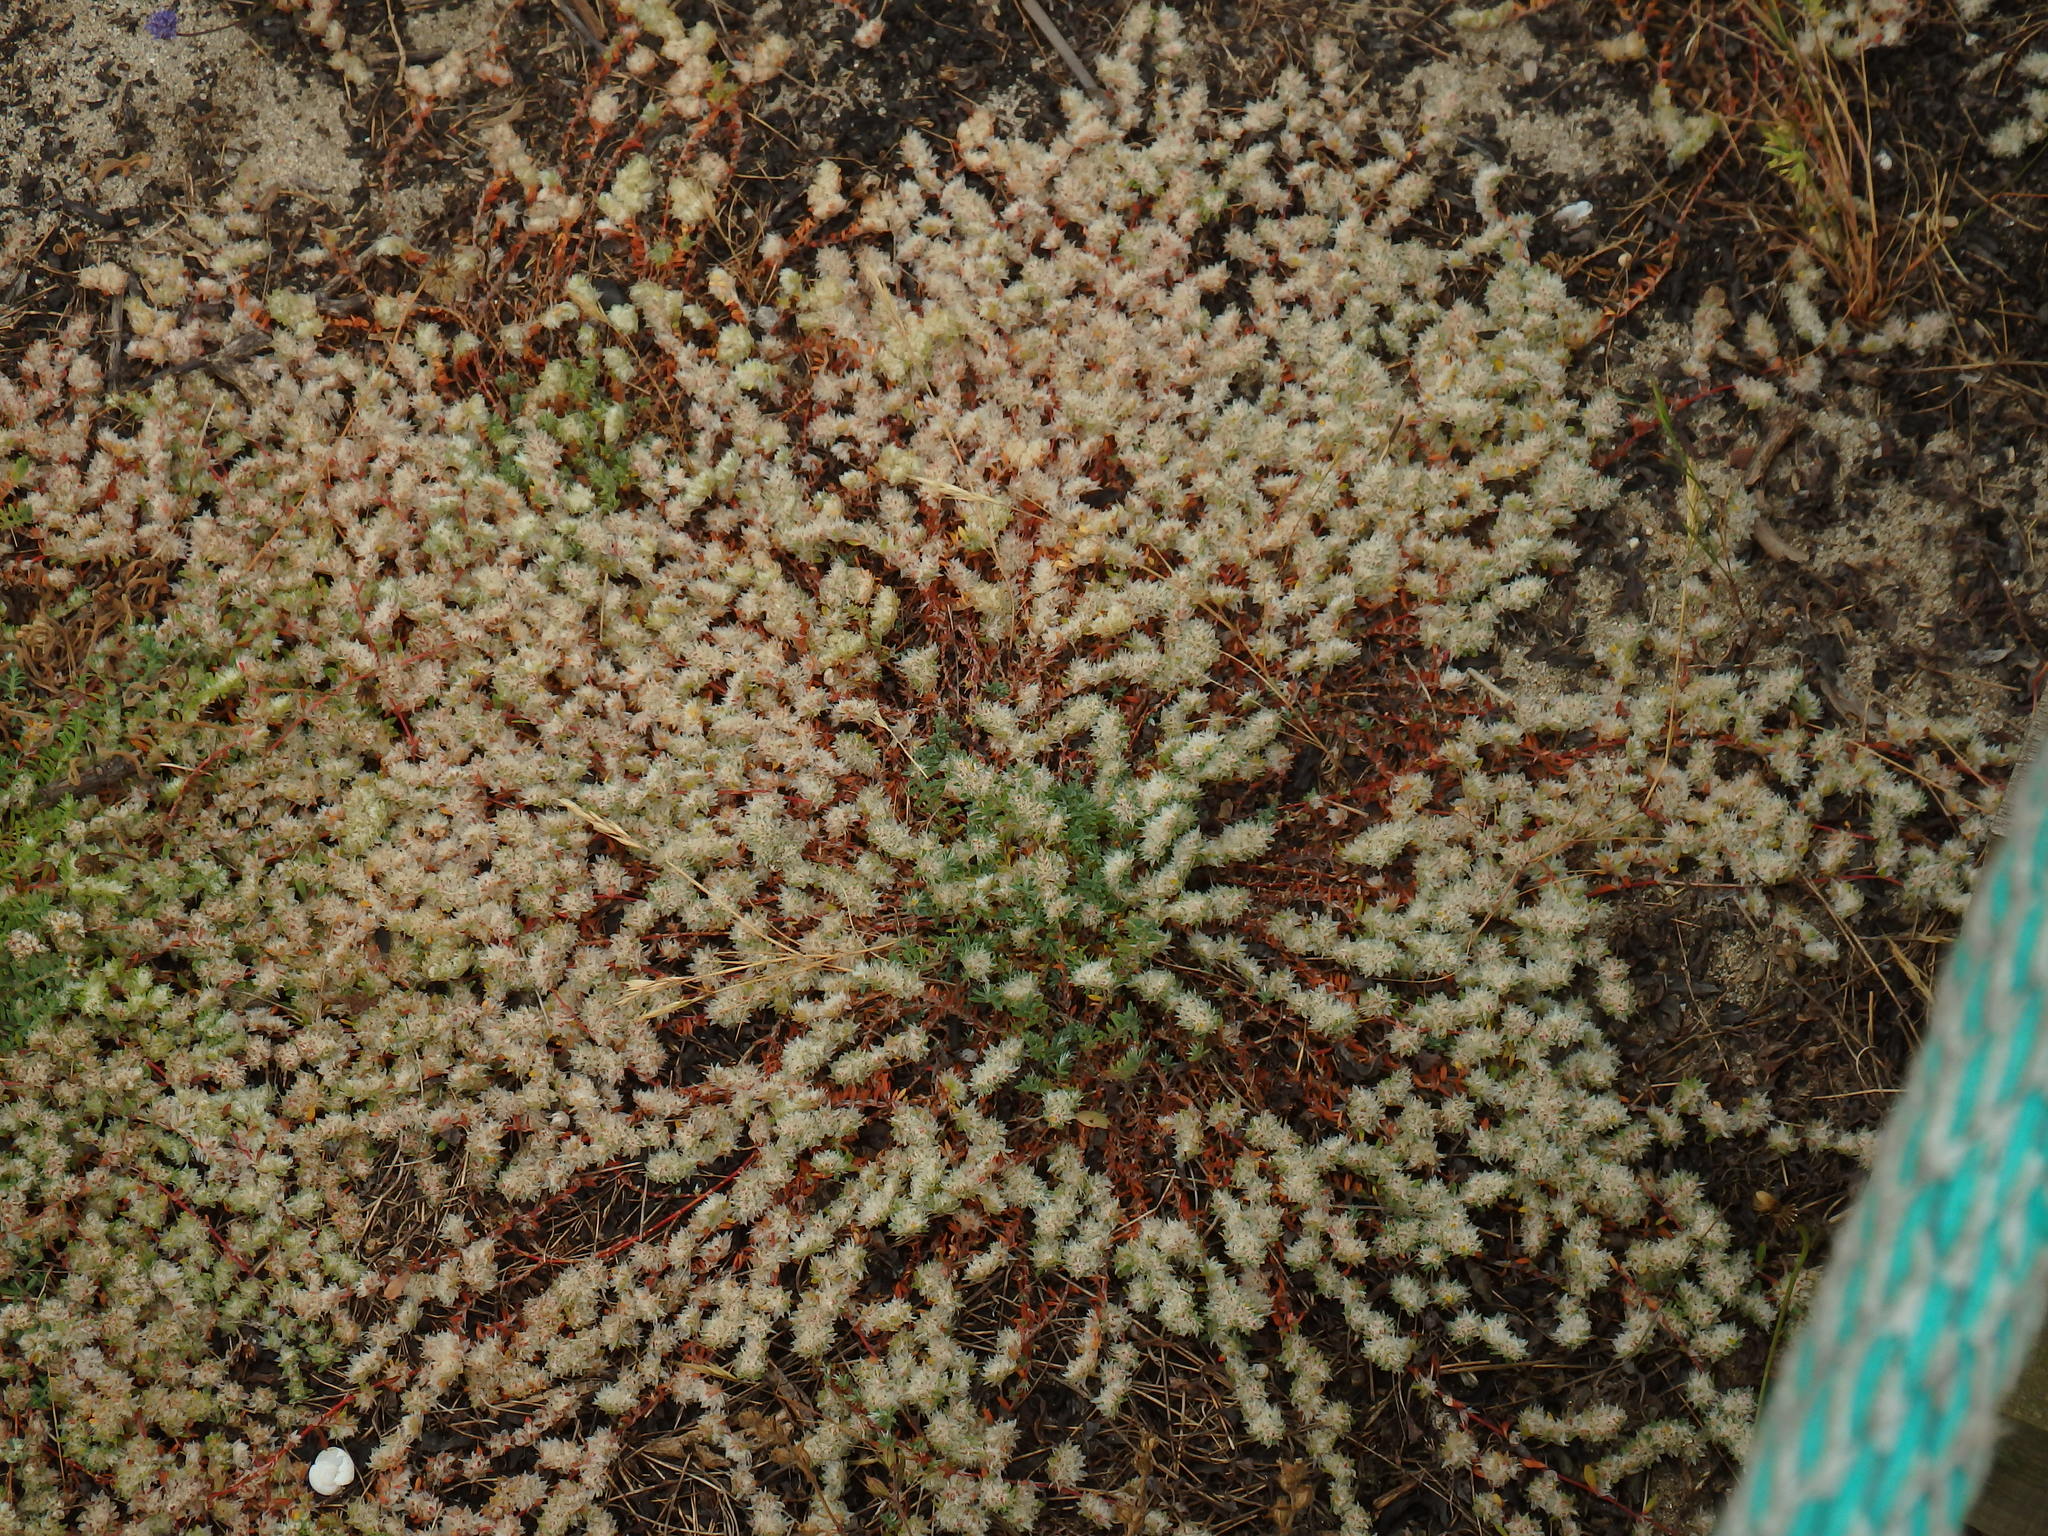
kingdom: Plantae
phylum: Tracheophyta
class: Magnoliopsida
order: Caryophyllales
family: Caryophyllaceae
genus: Paronychia
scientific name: Paronychia argentea
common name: Silver nailroot
